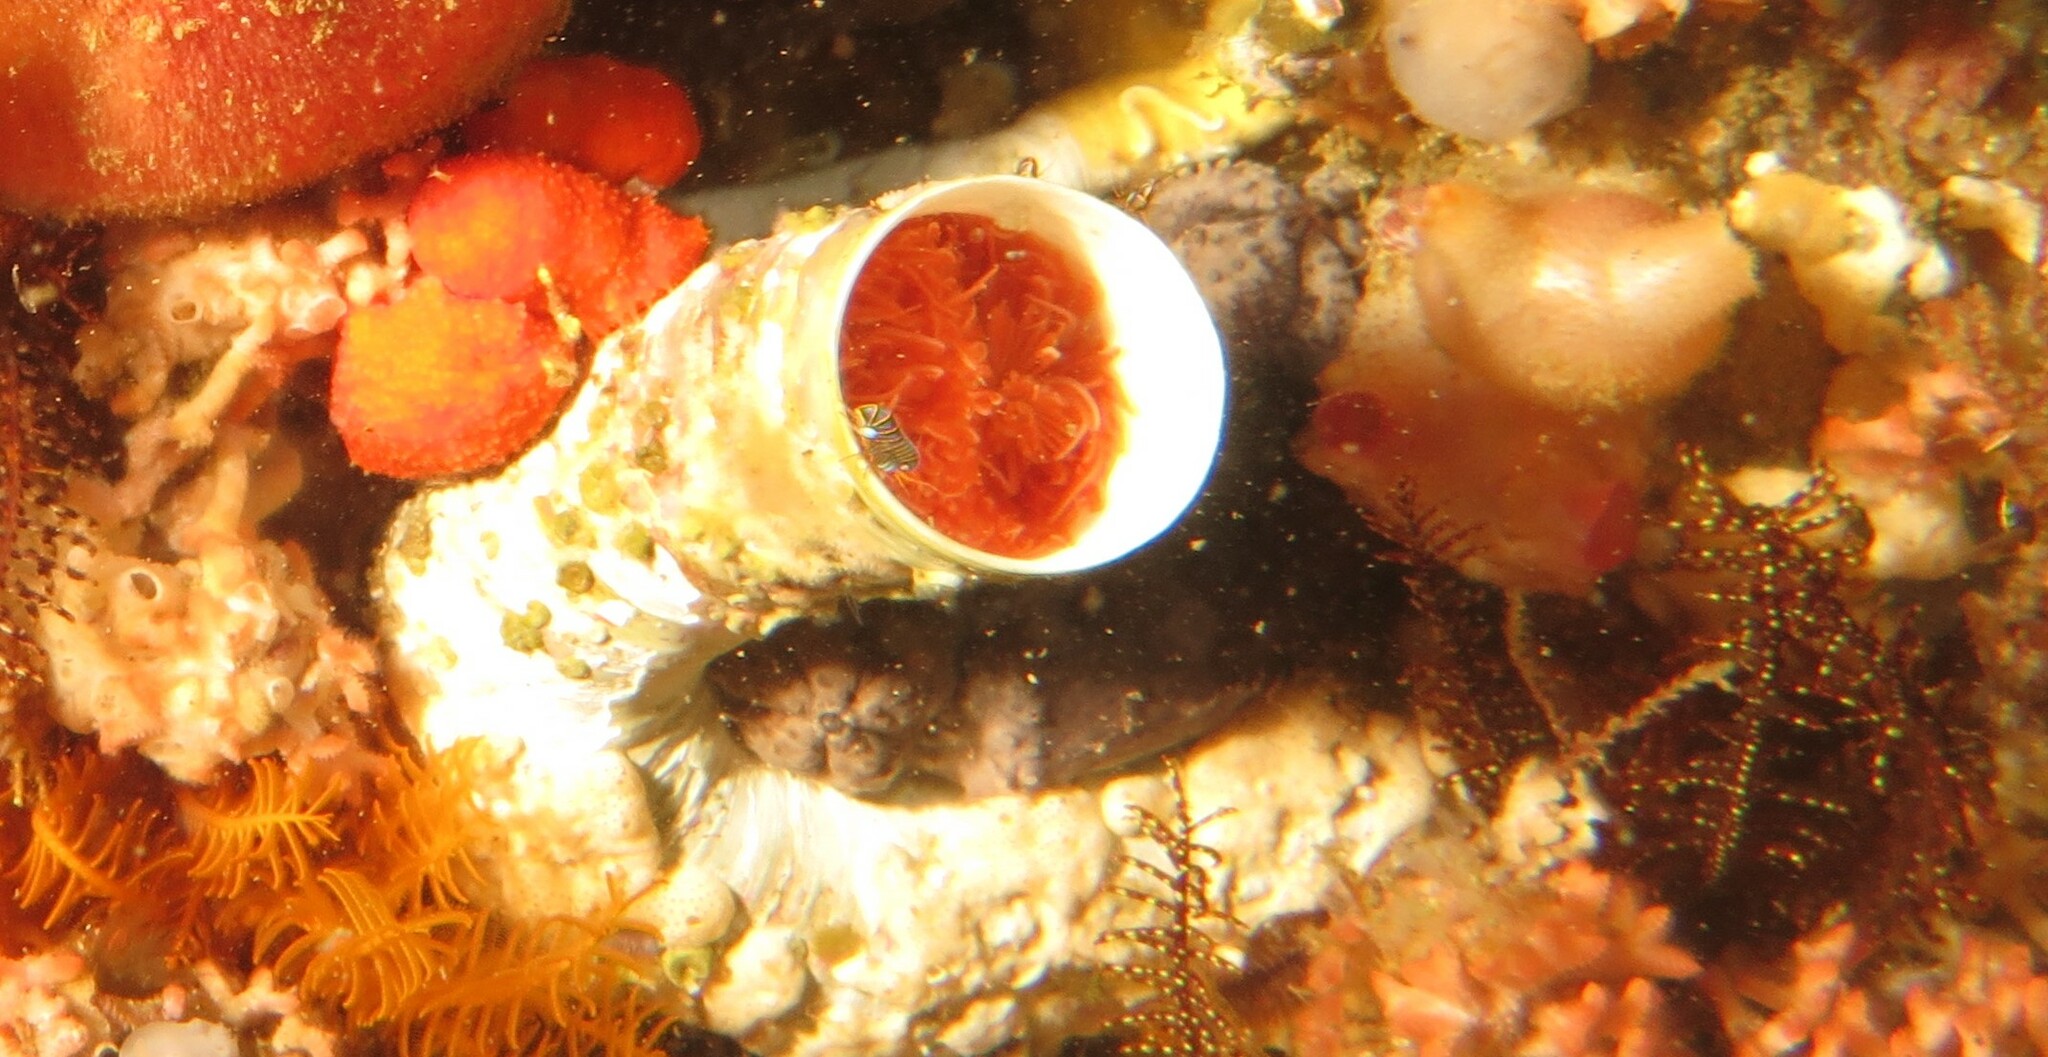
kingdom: Animalia
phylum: Annelida
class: Polychaeta
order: Sabellida
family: Serpulidae
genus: Protula
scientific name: Protula bispiralis
